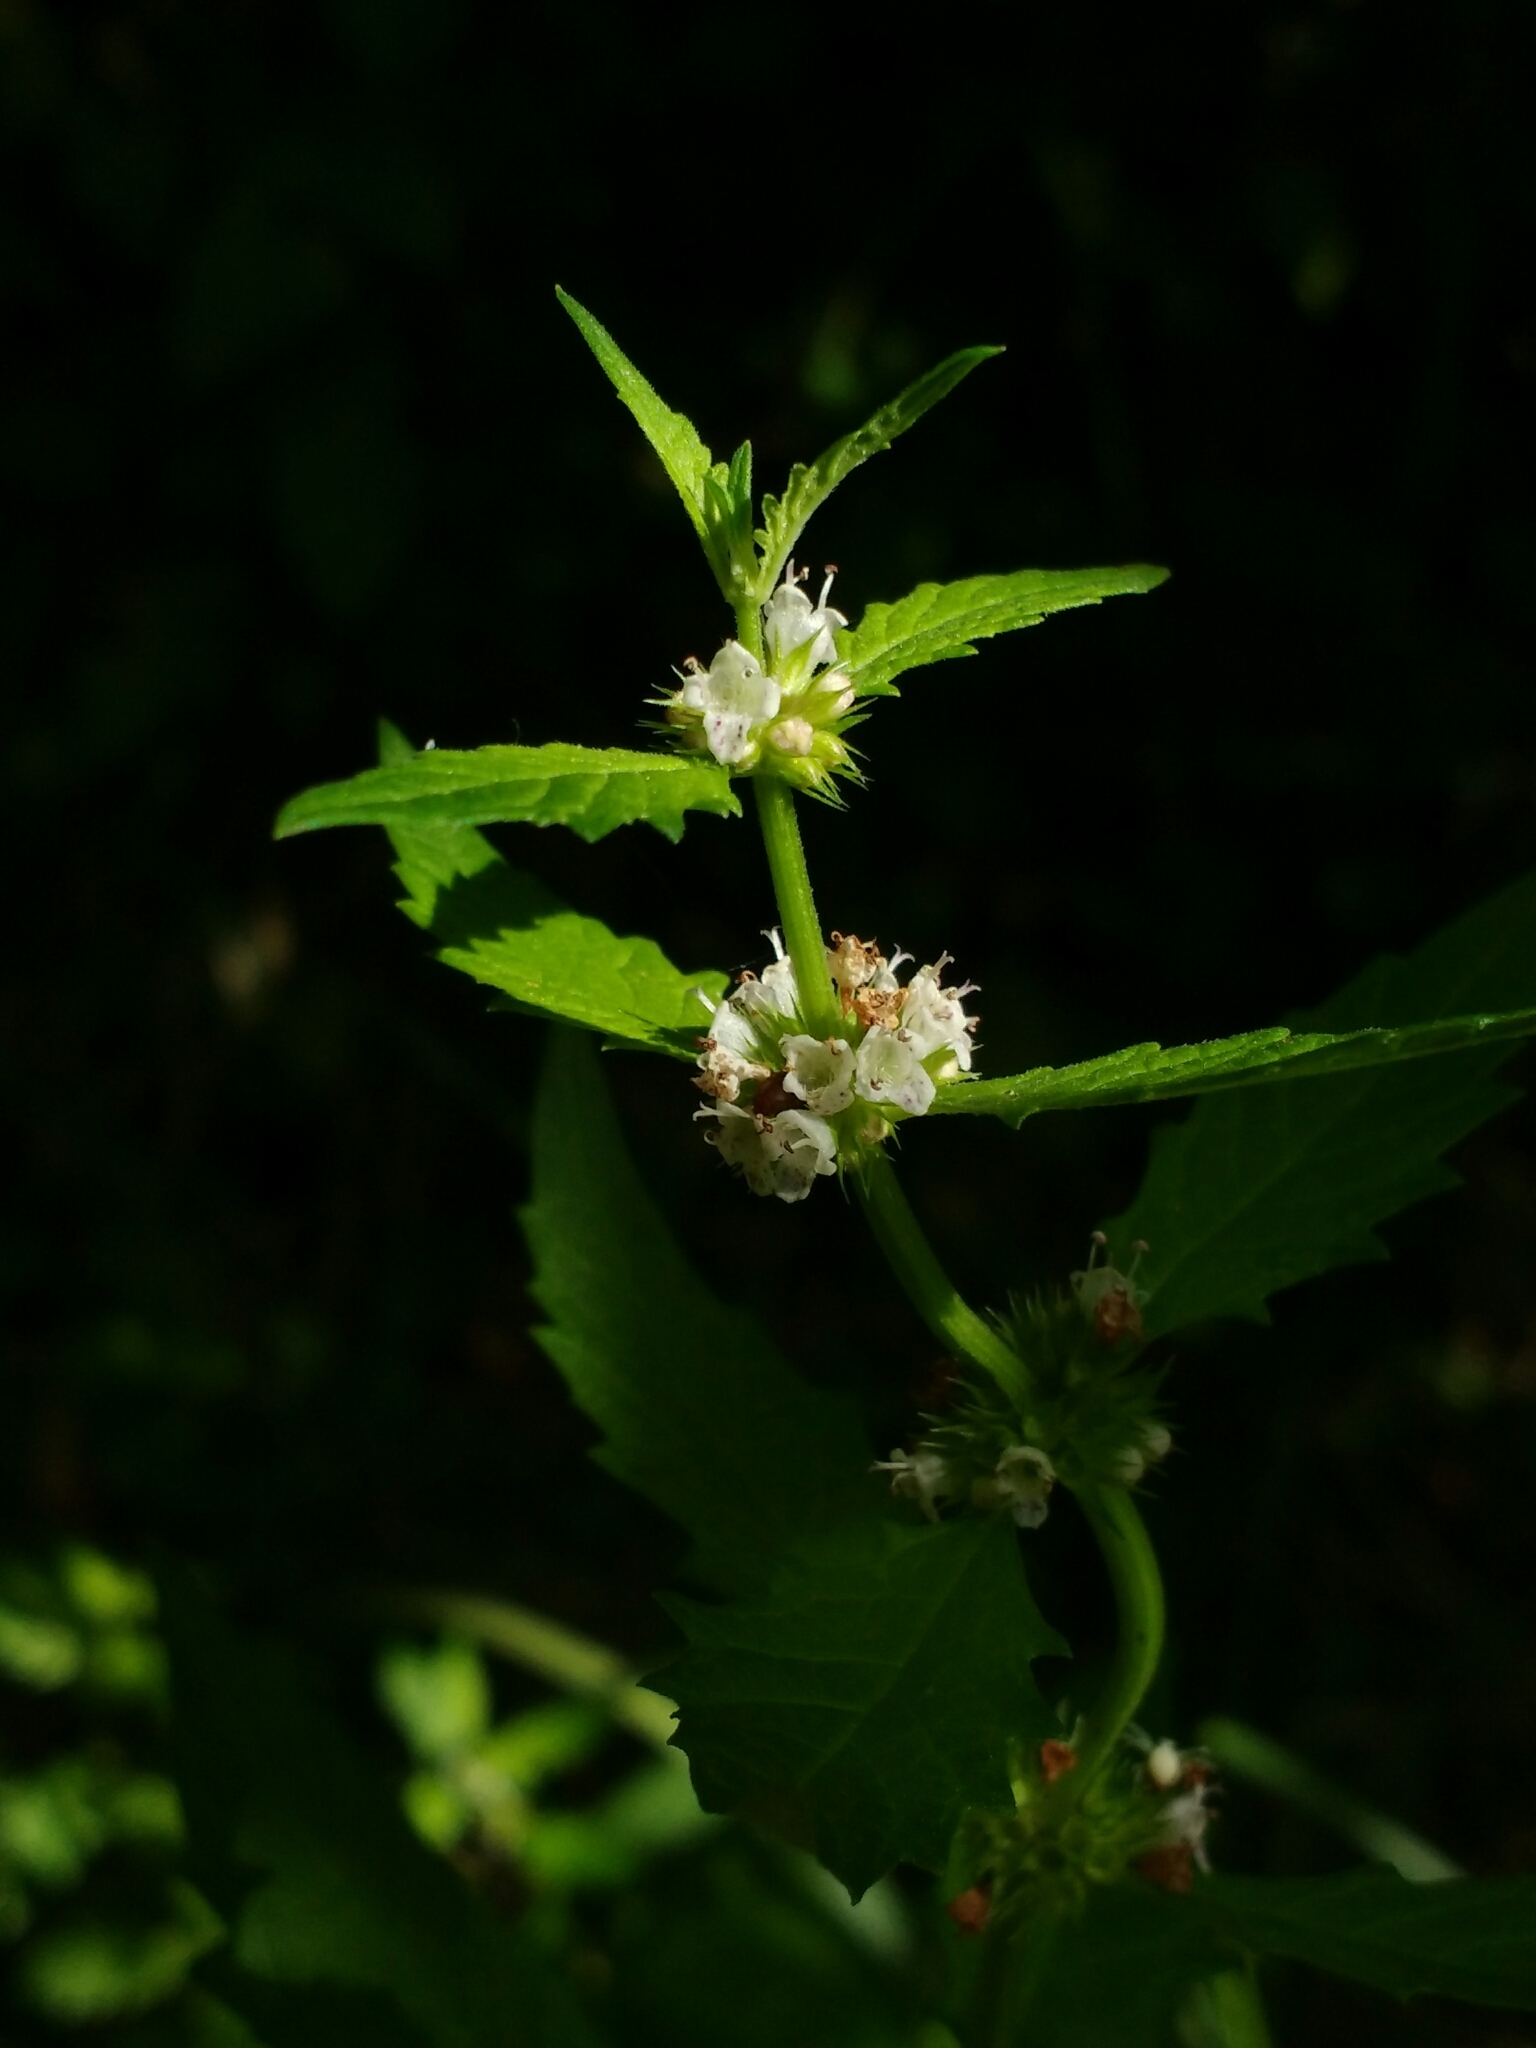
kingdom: Plantae
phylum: Tracheophyta
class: Magnoliopsida
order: Lamiales
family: Lamiaceae
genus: Lycopus
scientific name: Lycopus europaeus
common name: European bugleweed
